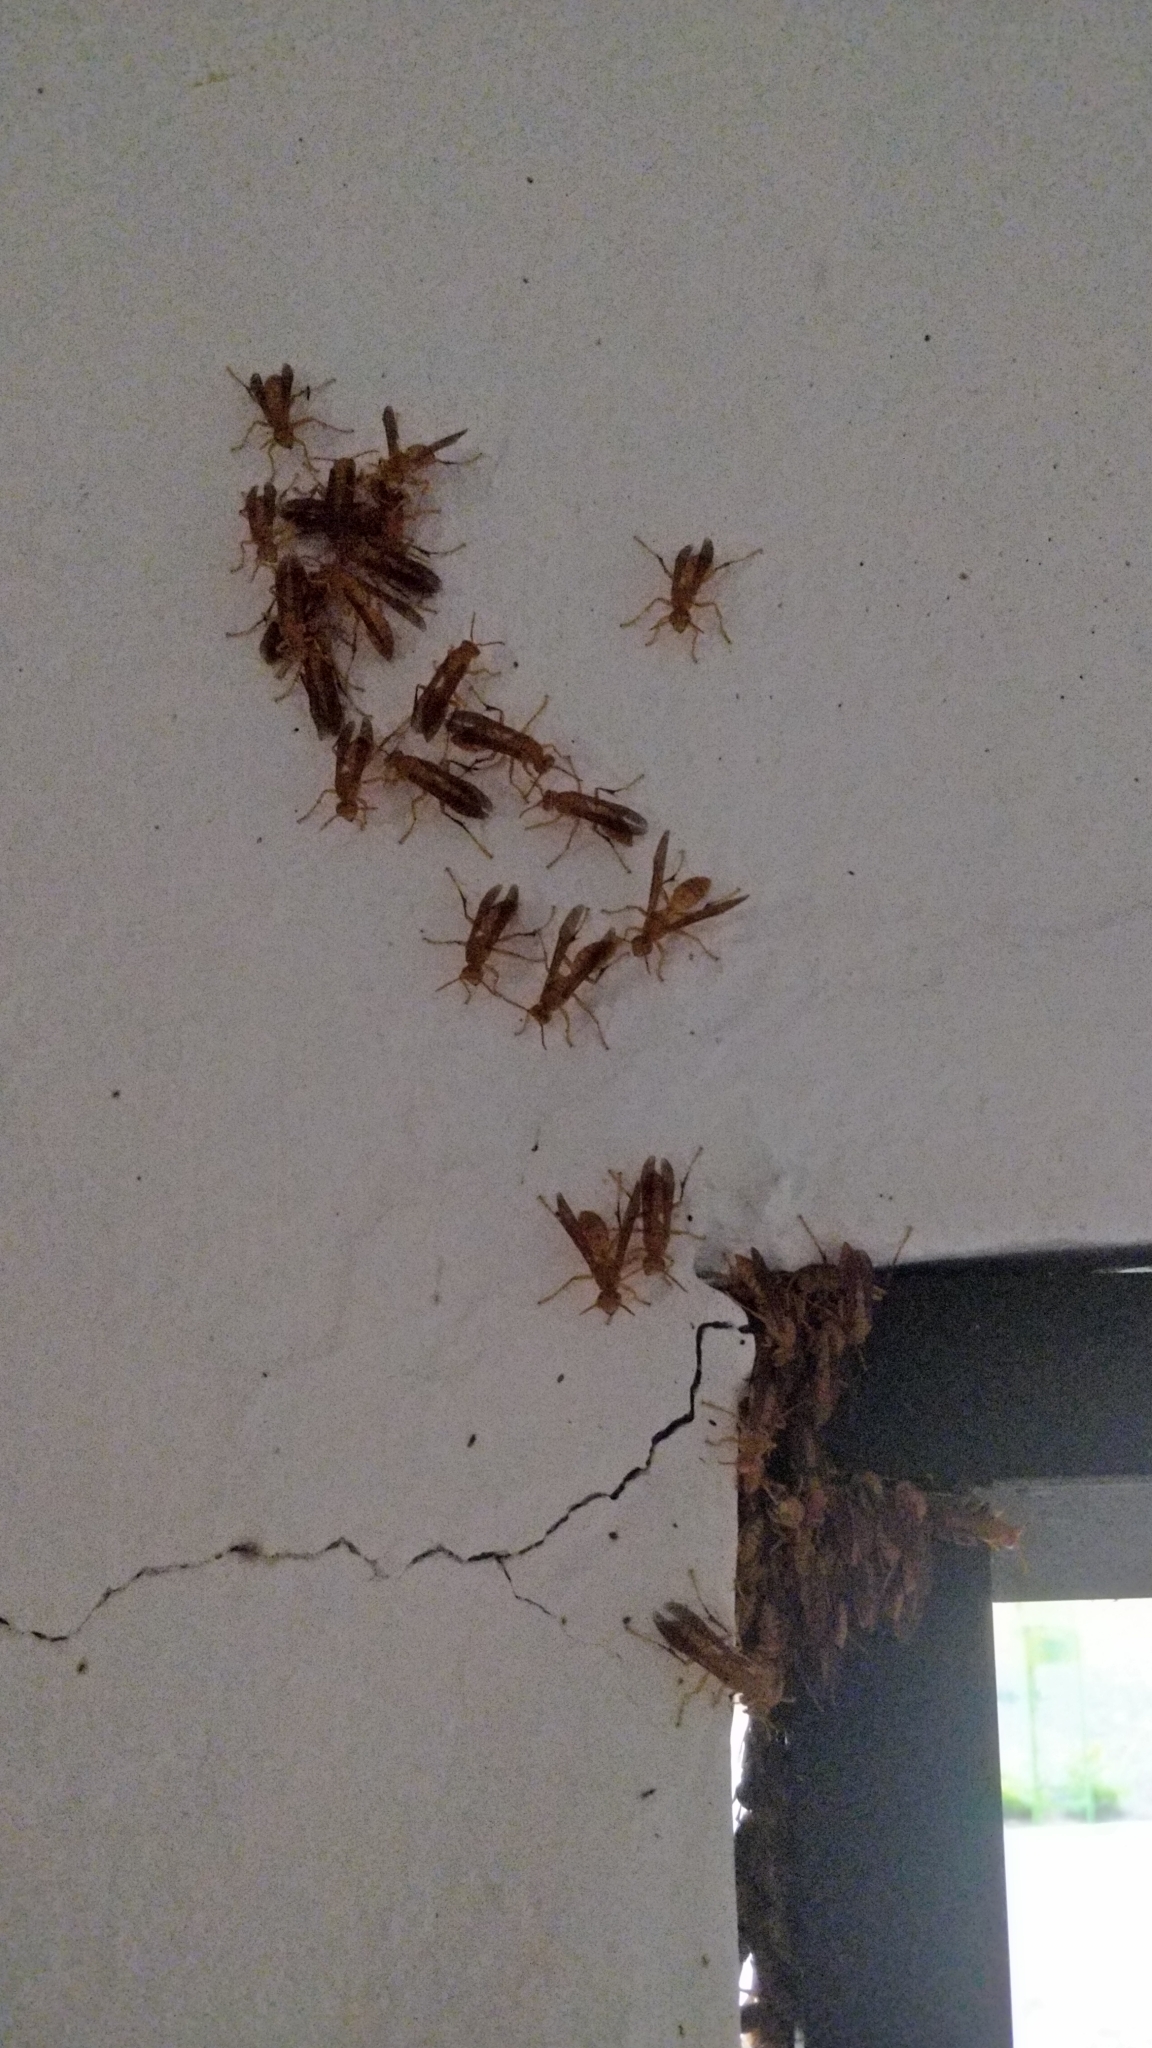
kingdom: Animalia
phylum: Arthropoda
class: Insecta
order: Hymenoptera
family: Eumenidae
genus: Polistes
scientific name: Polistes wattii
